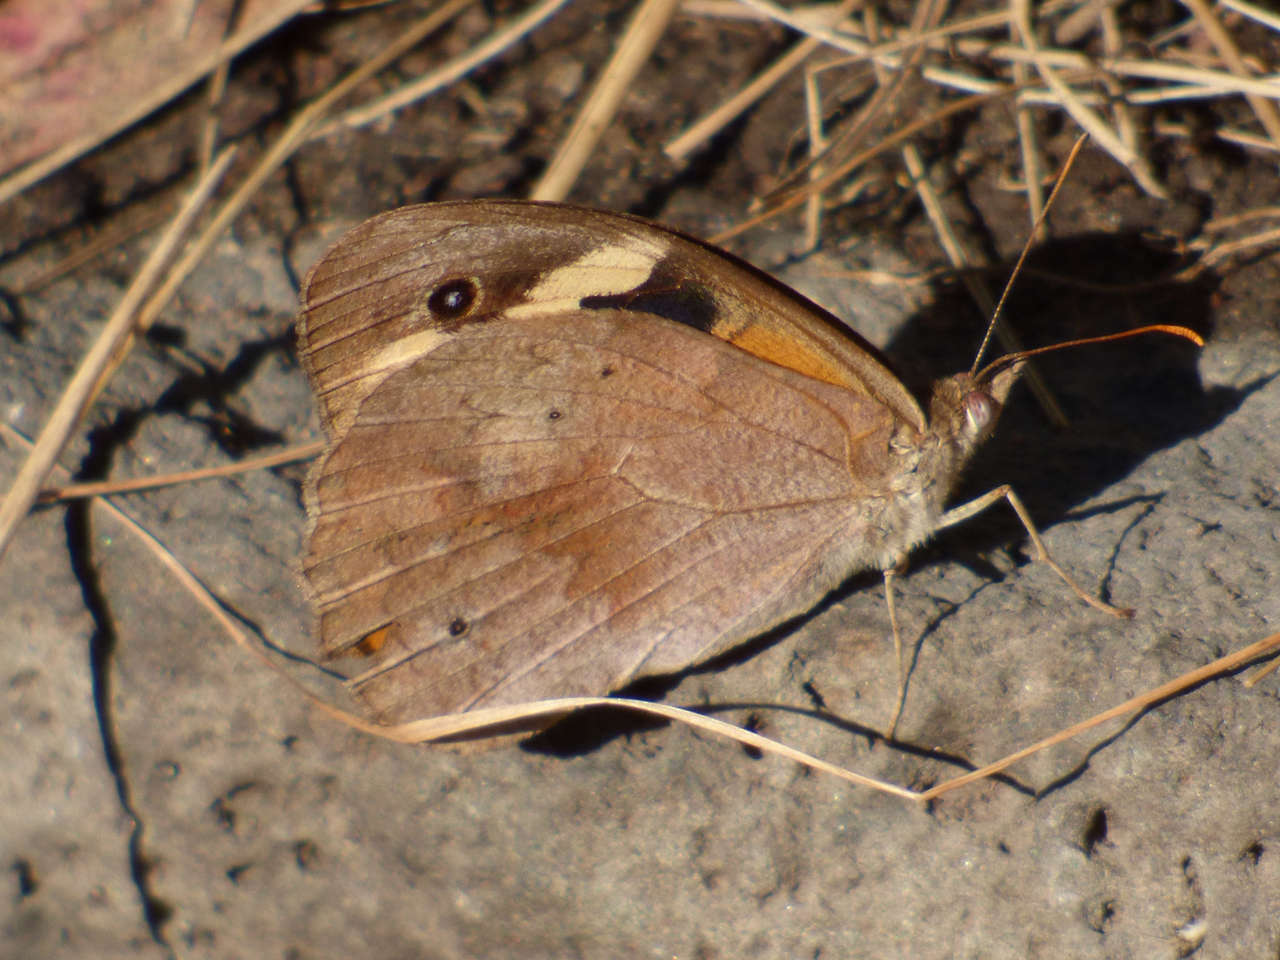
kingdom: Animalia
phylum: Arthropoda
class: Insecta
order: Lepidoptera
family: Nymphalidae
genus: Heteronympha
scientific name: Heteronympha merope
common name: Common brown
